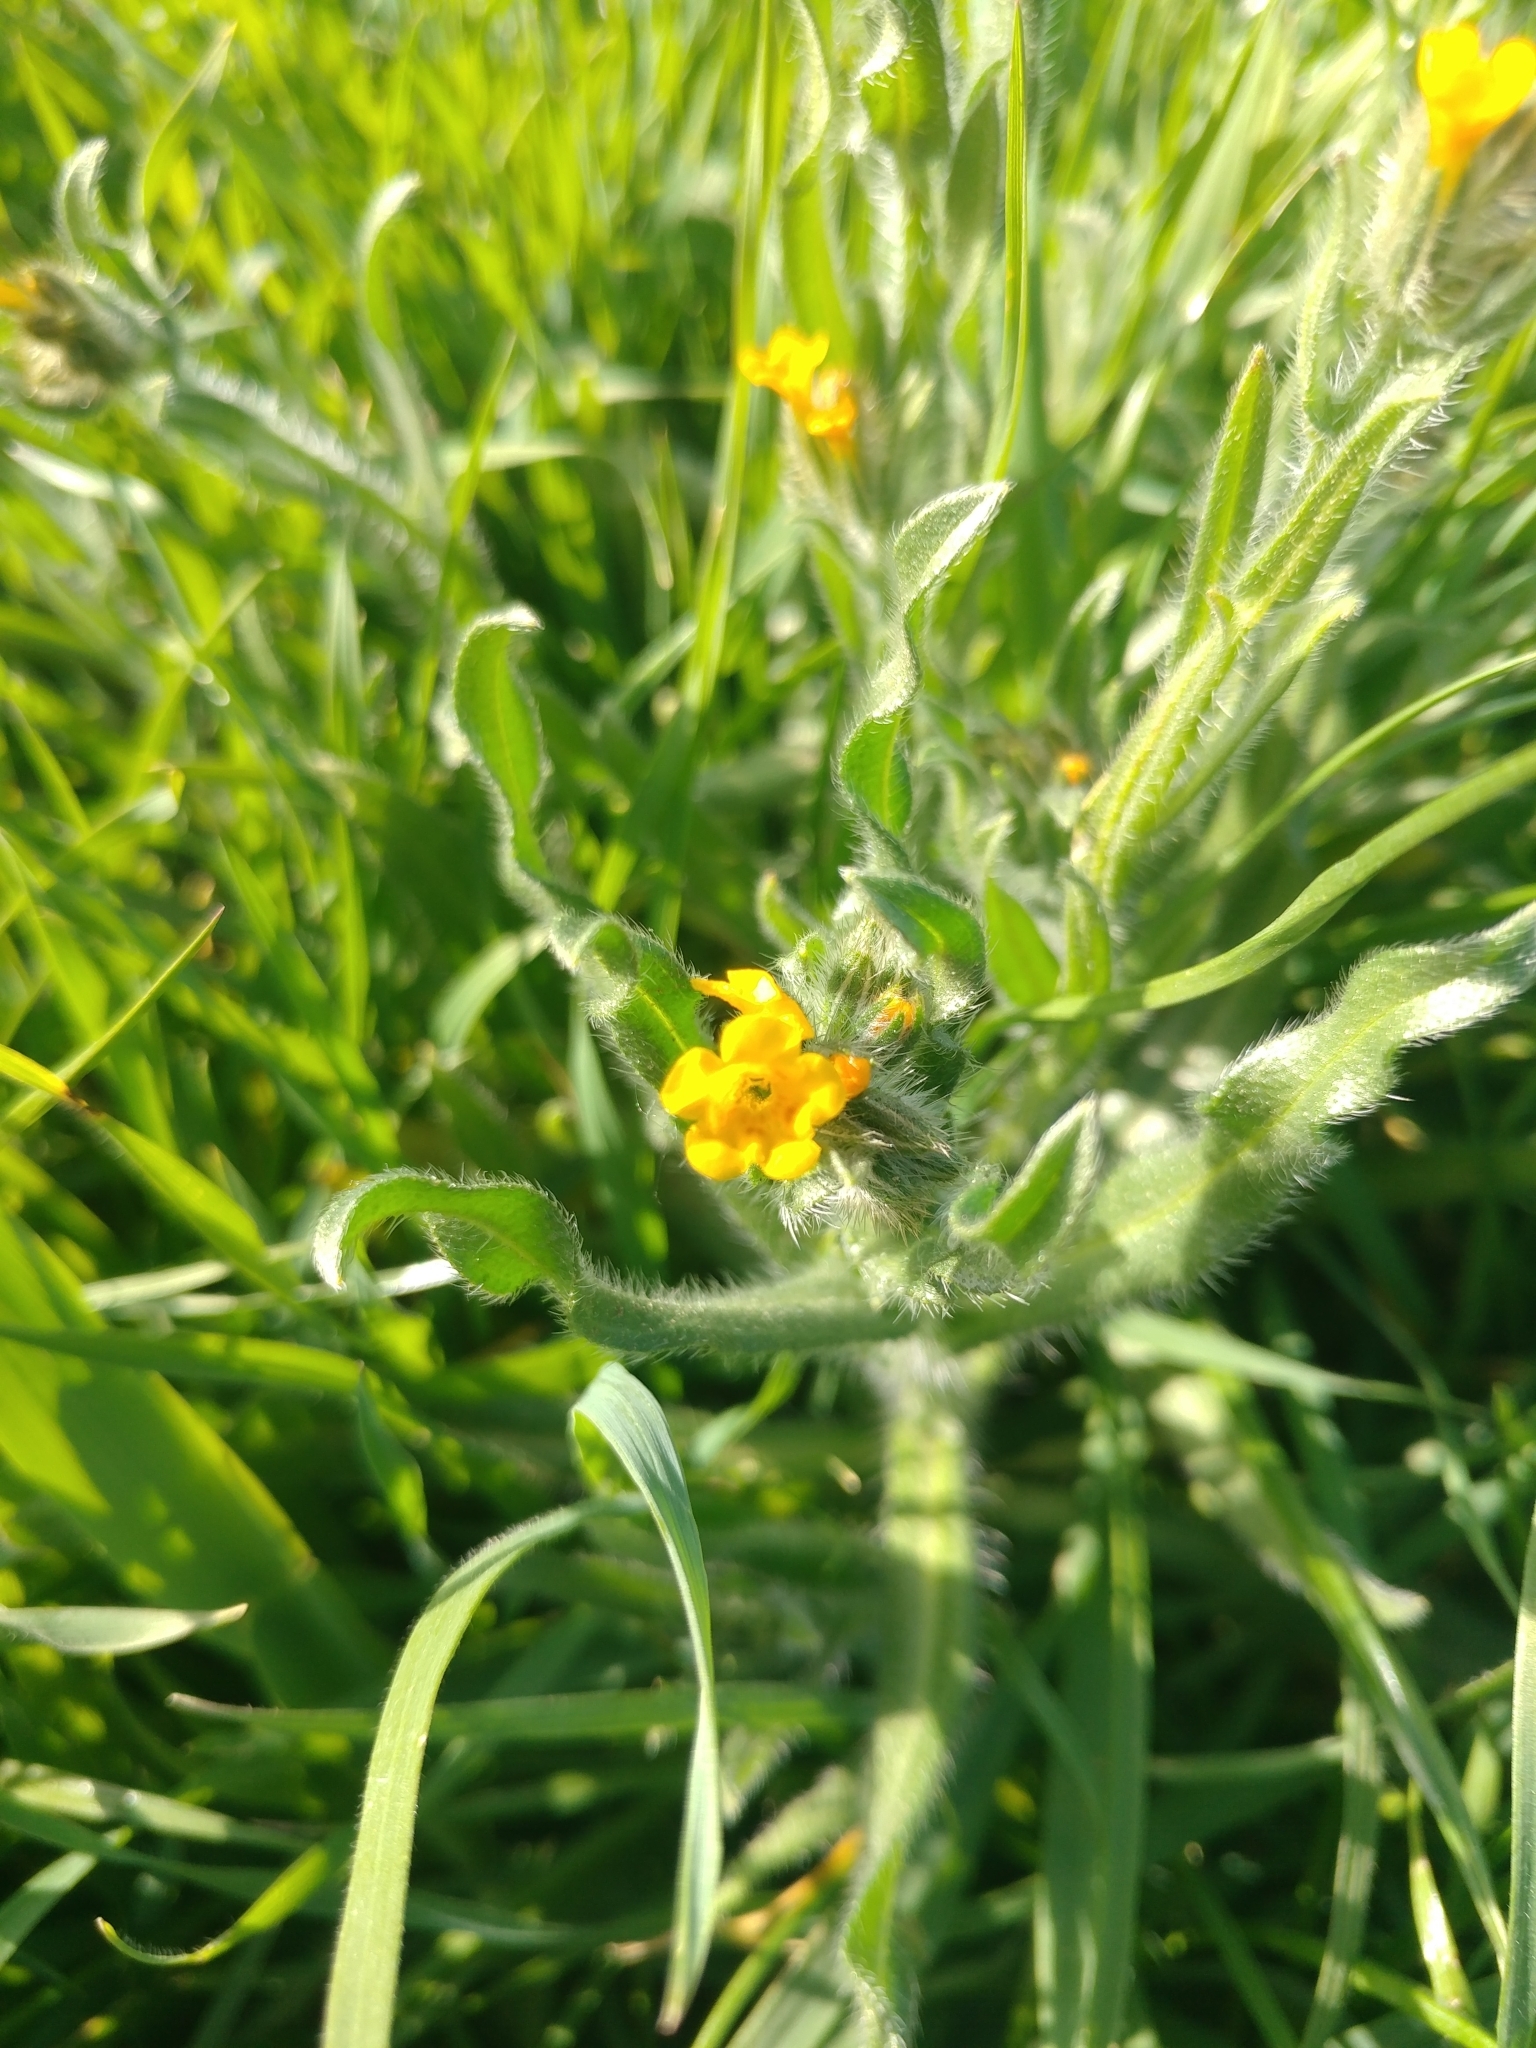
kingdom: Plantae
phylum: Tracheophyta
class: Magnoliopsida
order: Boraginales
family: Boraginaceae
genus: Amsinckia
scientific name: Amsinckia menziesii
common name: Menzies' fiddleneck
